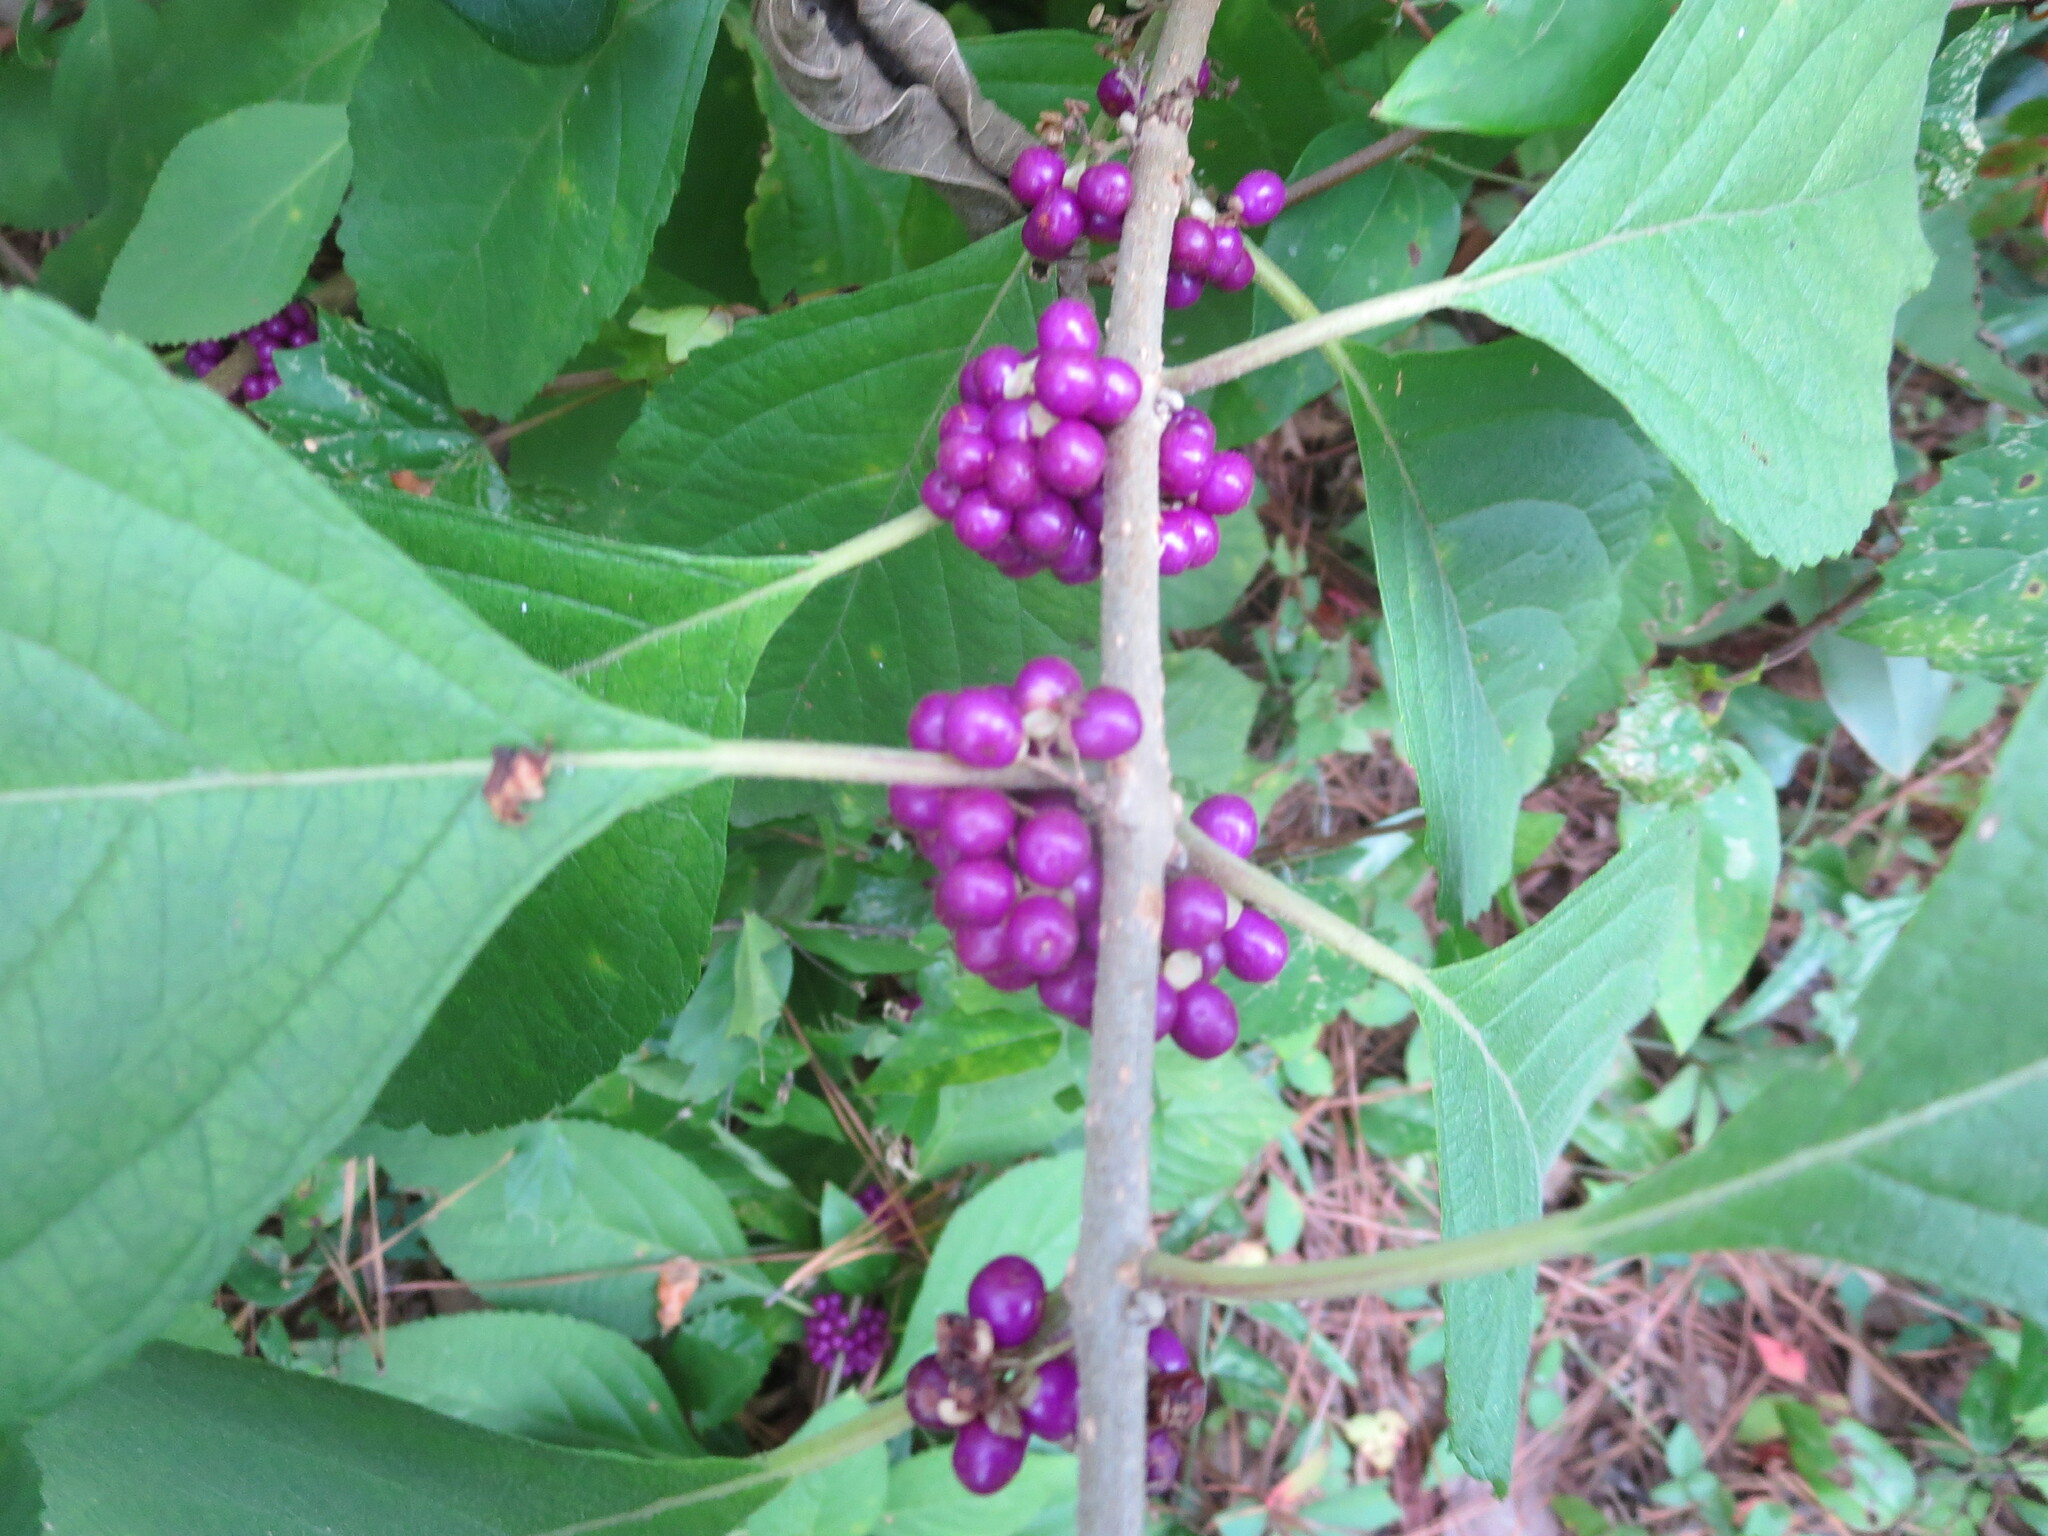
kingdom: Plantae
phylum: Tracheophyta
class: Magnoliopsida
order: Lamiales
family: Lamiaceae
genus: Callicarpa
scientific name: Callicarpa americana
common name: American beautyberry
